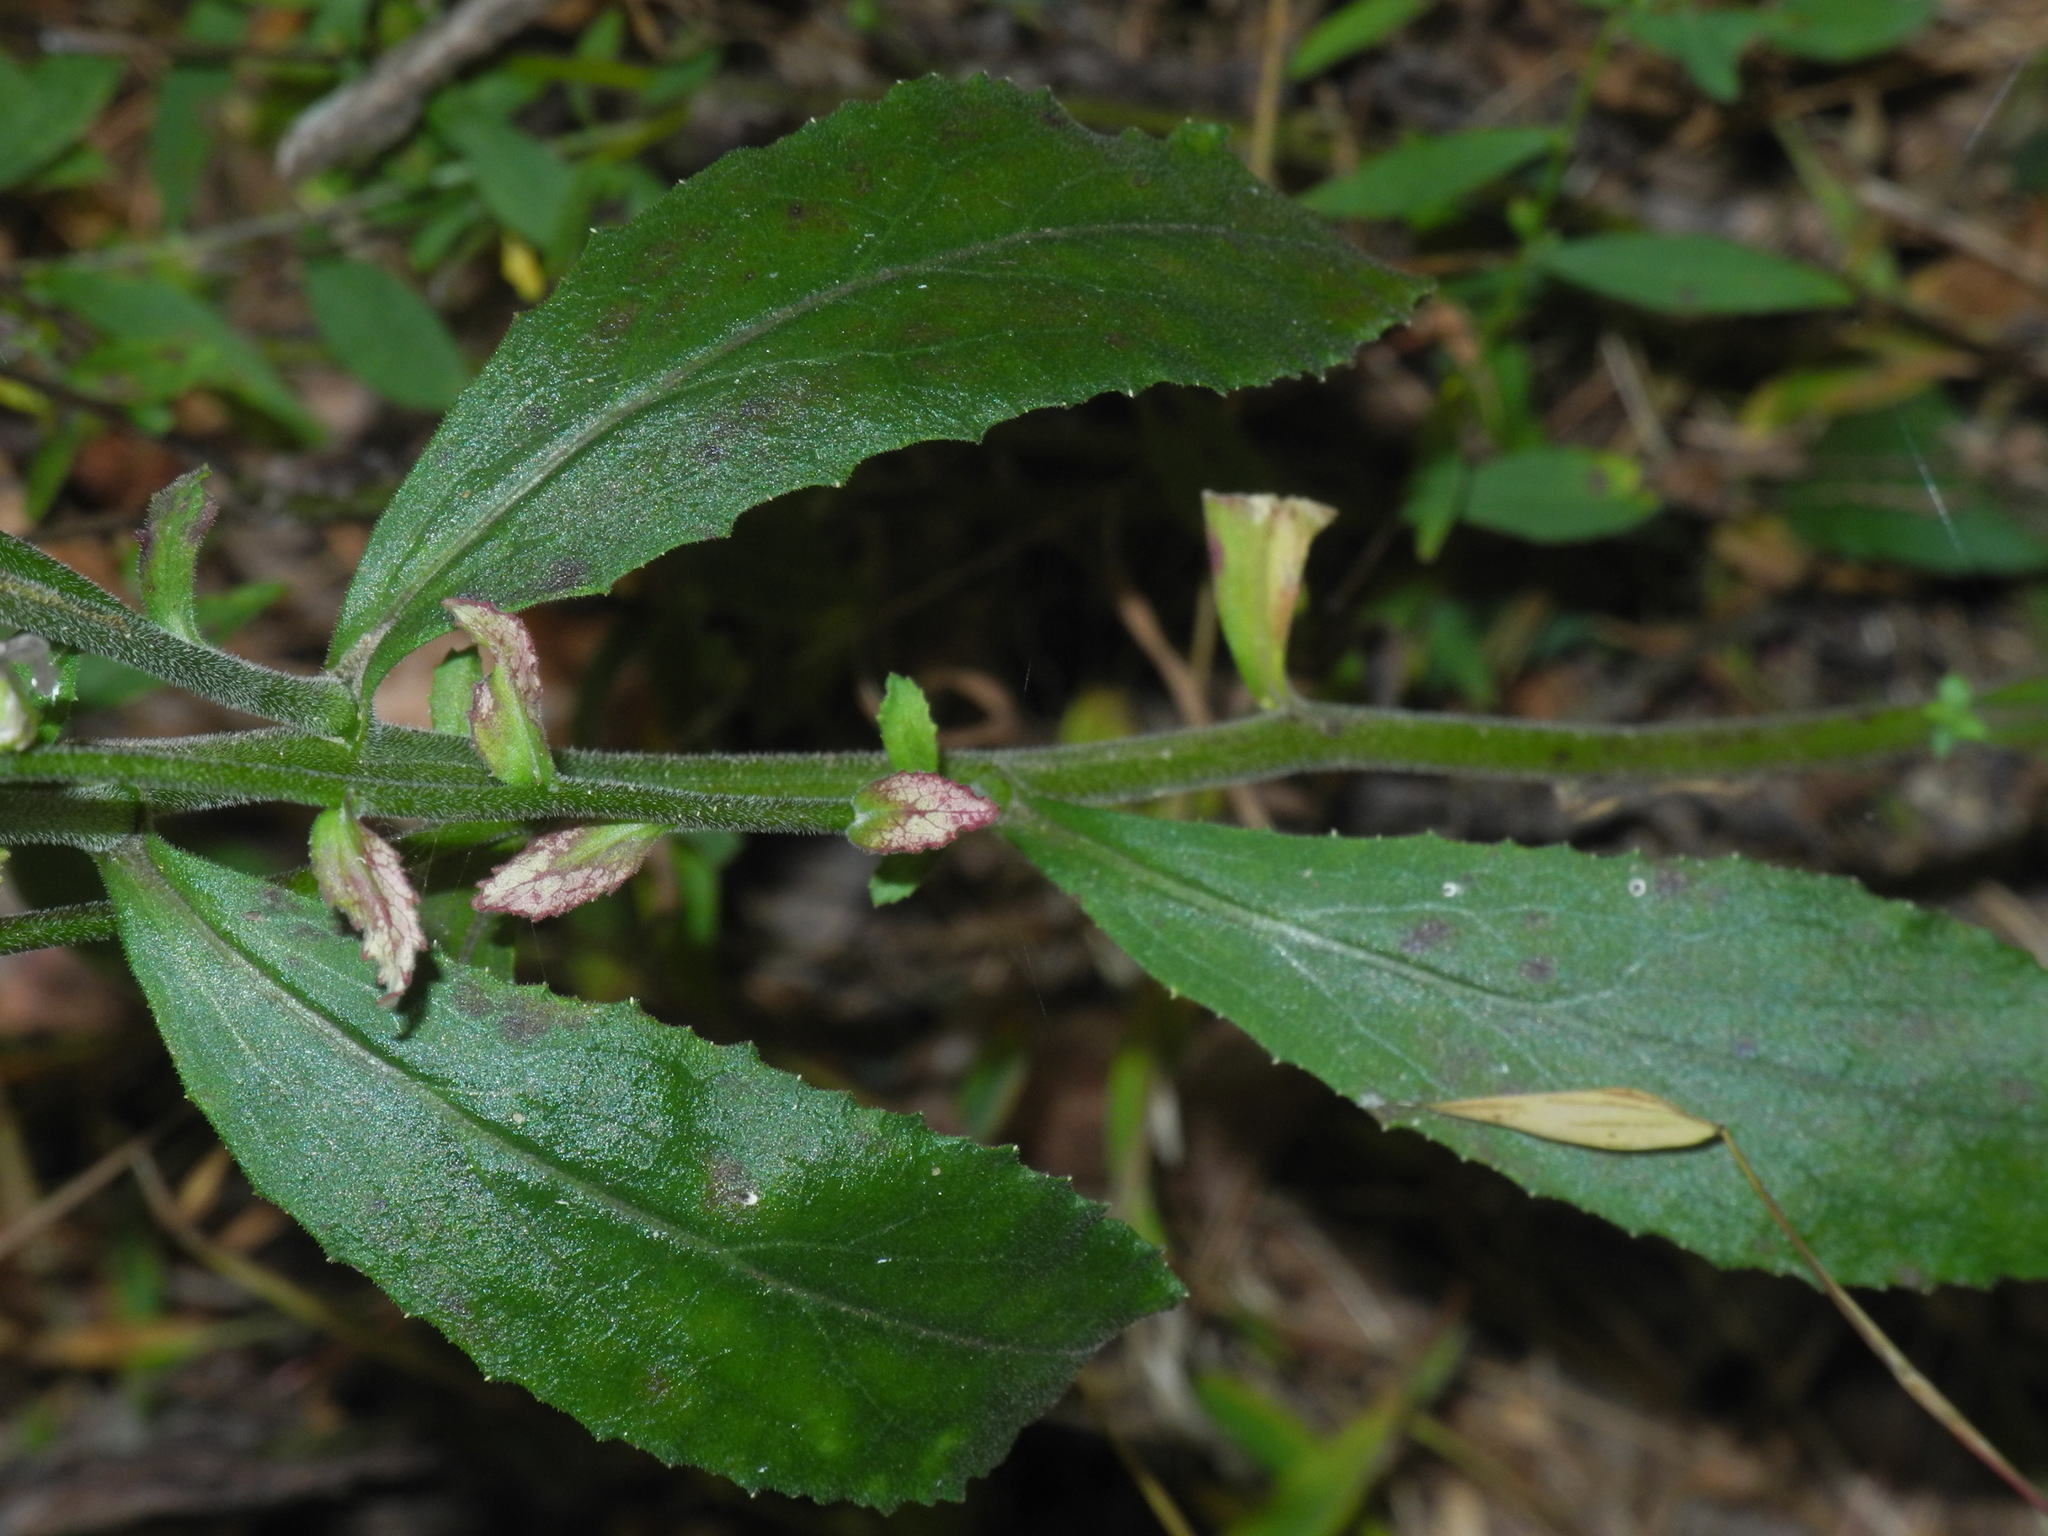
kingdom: Plantae
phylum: Tracheophyta
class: Magnoliopsida
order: Asterales
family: Campanulaceae
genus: Lobelia
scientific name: Lobelia puberula
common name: Purple dewdrop
